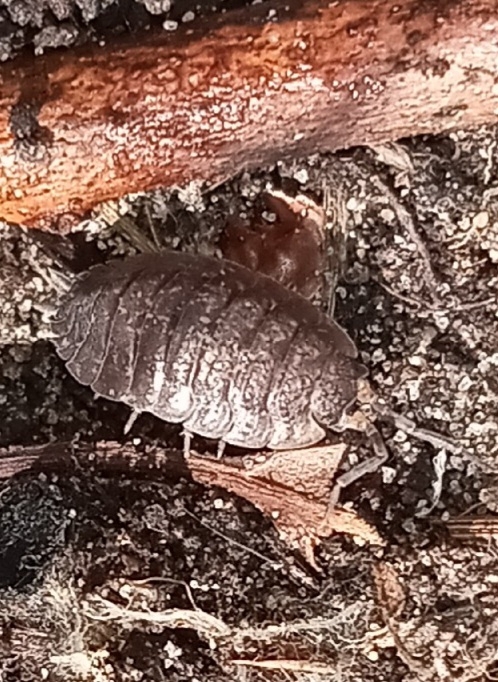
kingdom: Animalia
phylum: Arthropoda
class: Malacostraca
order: Isopoda
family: Porcellionidae
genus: Porcellio
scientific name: Porcellio scaber
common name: Common rough woodlouse
